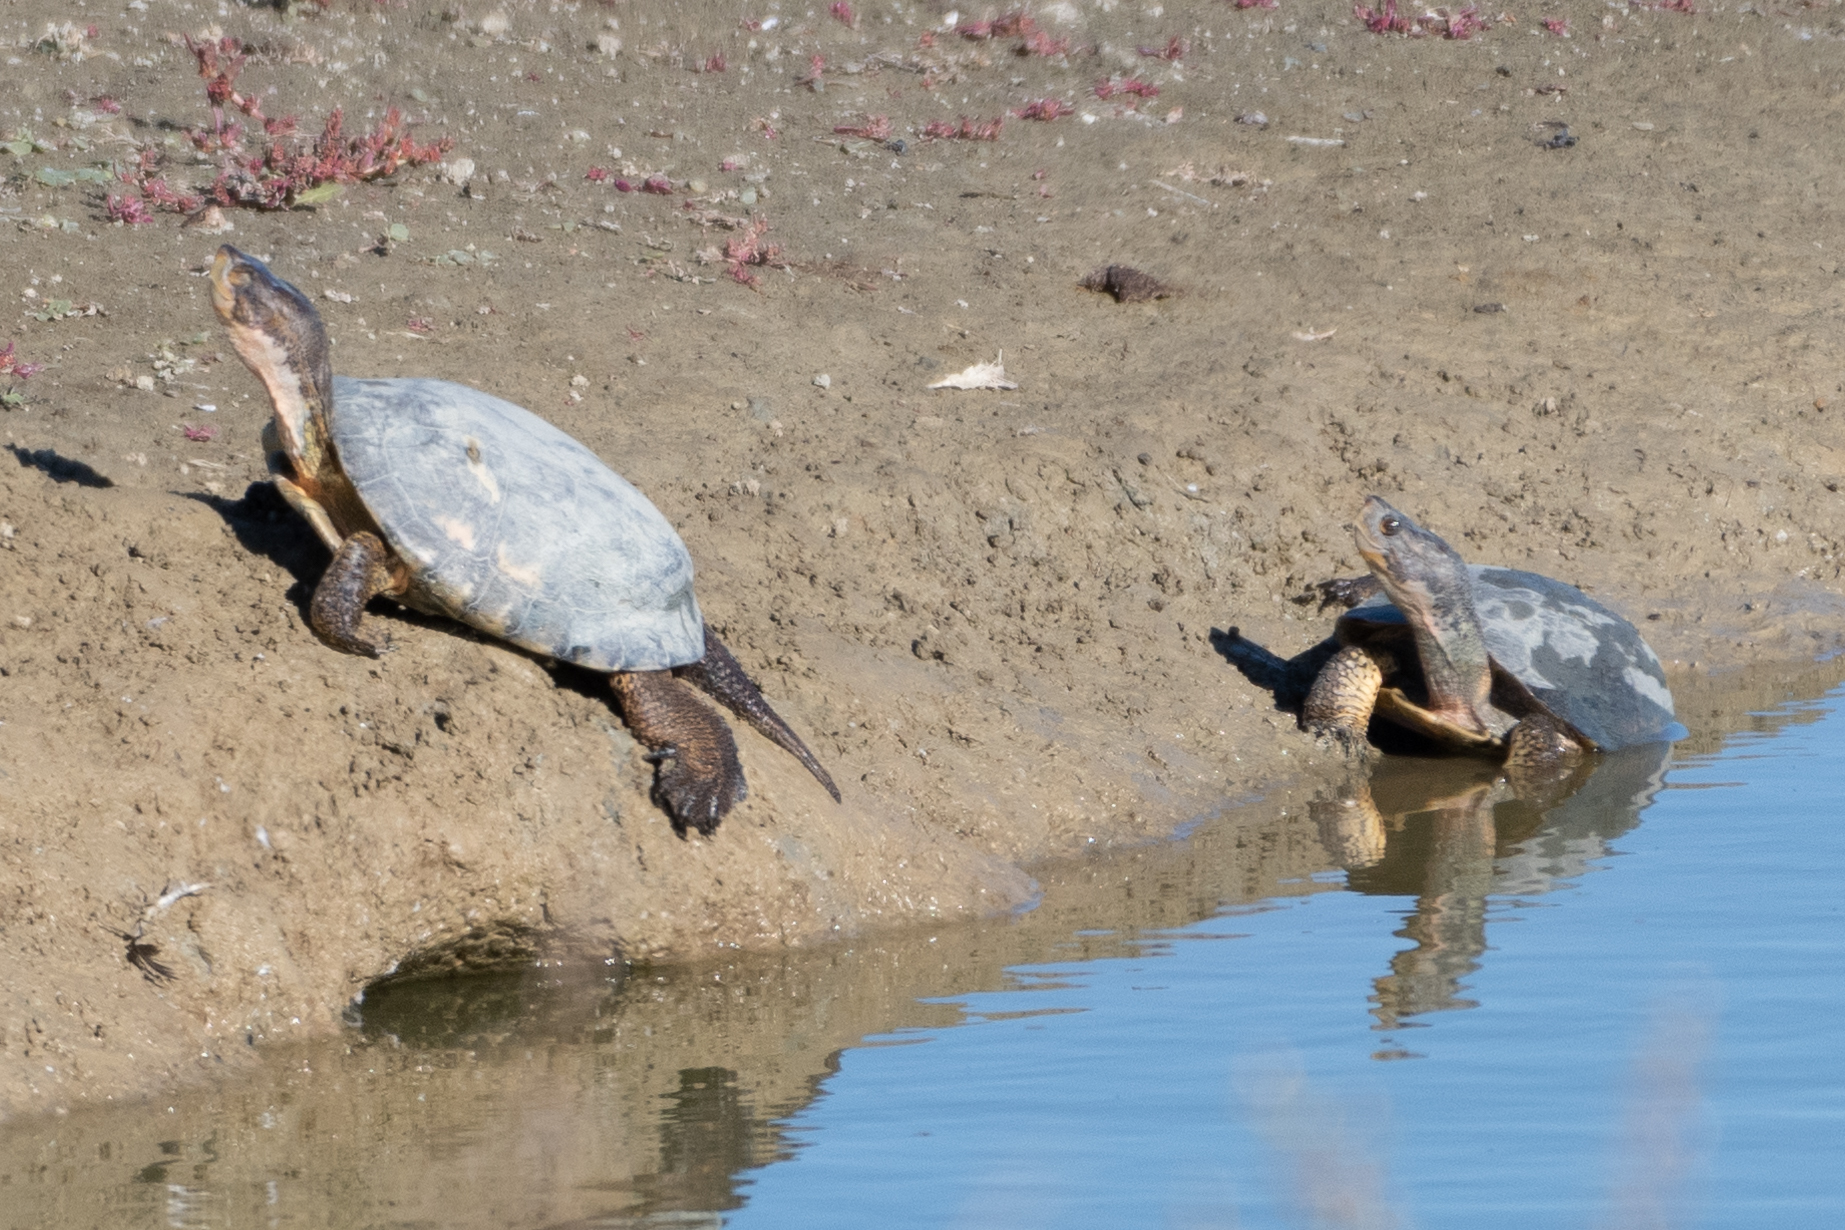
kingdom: Animalia
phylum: Chordata
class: Testudines
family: Emydidae
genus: Actinemys
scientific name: Actinemys marmorata
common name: Western pond turtle
